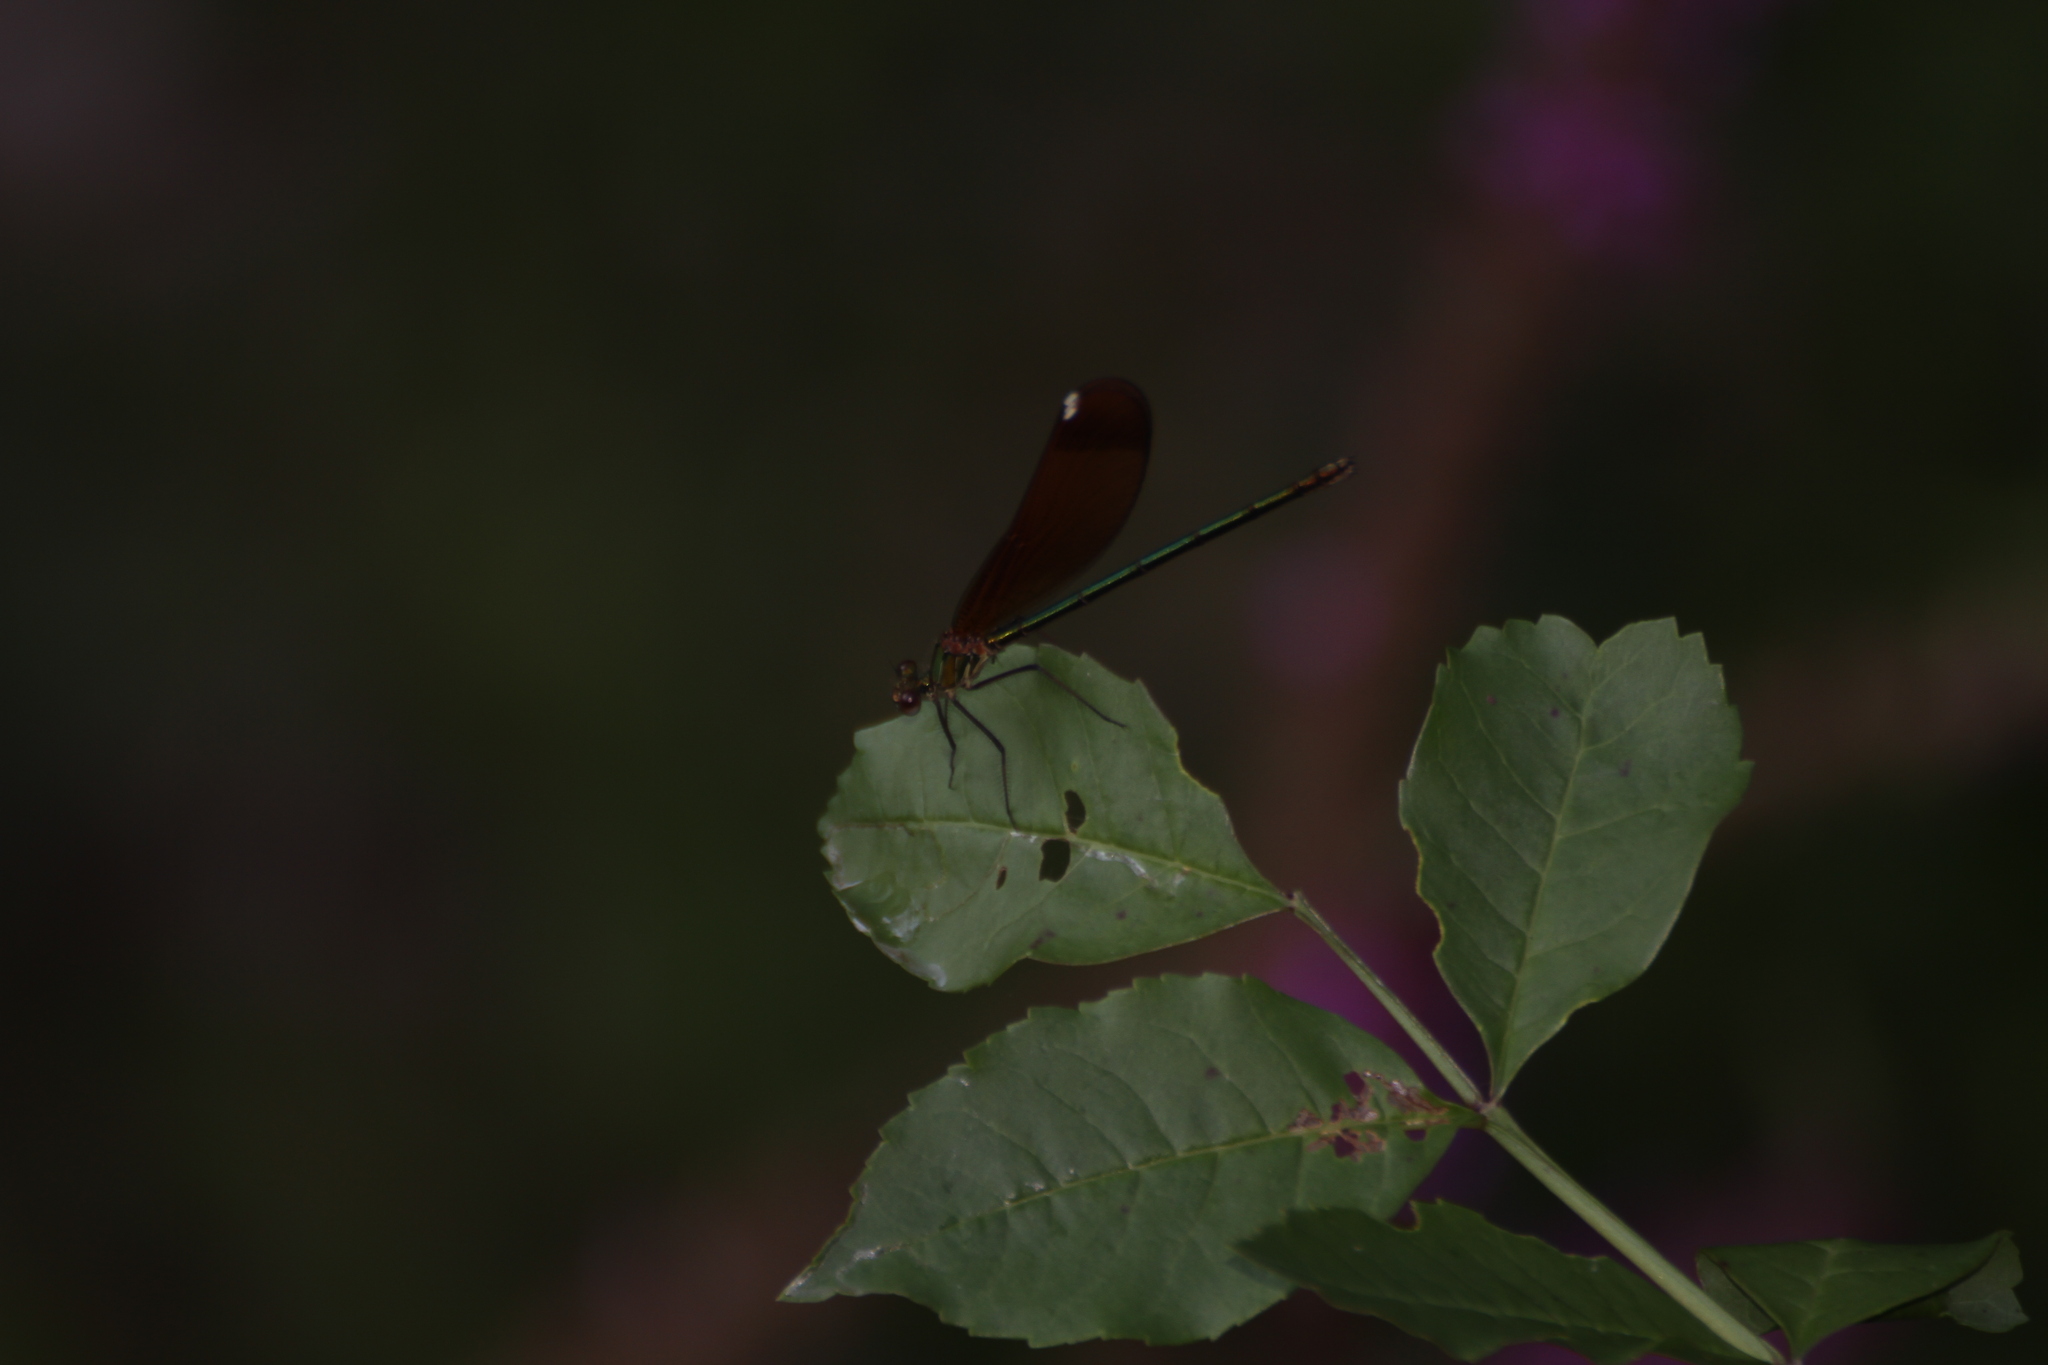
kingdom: Animalia
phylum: Arthropoda
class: Insecta
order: Odonata
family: Calopterygidae
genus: Calopteryx
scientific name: Calopteryx haemorrhoidalis
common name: Copper demoiselle
